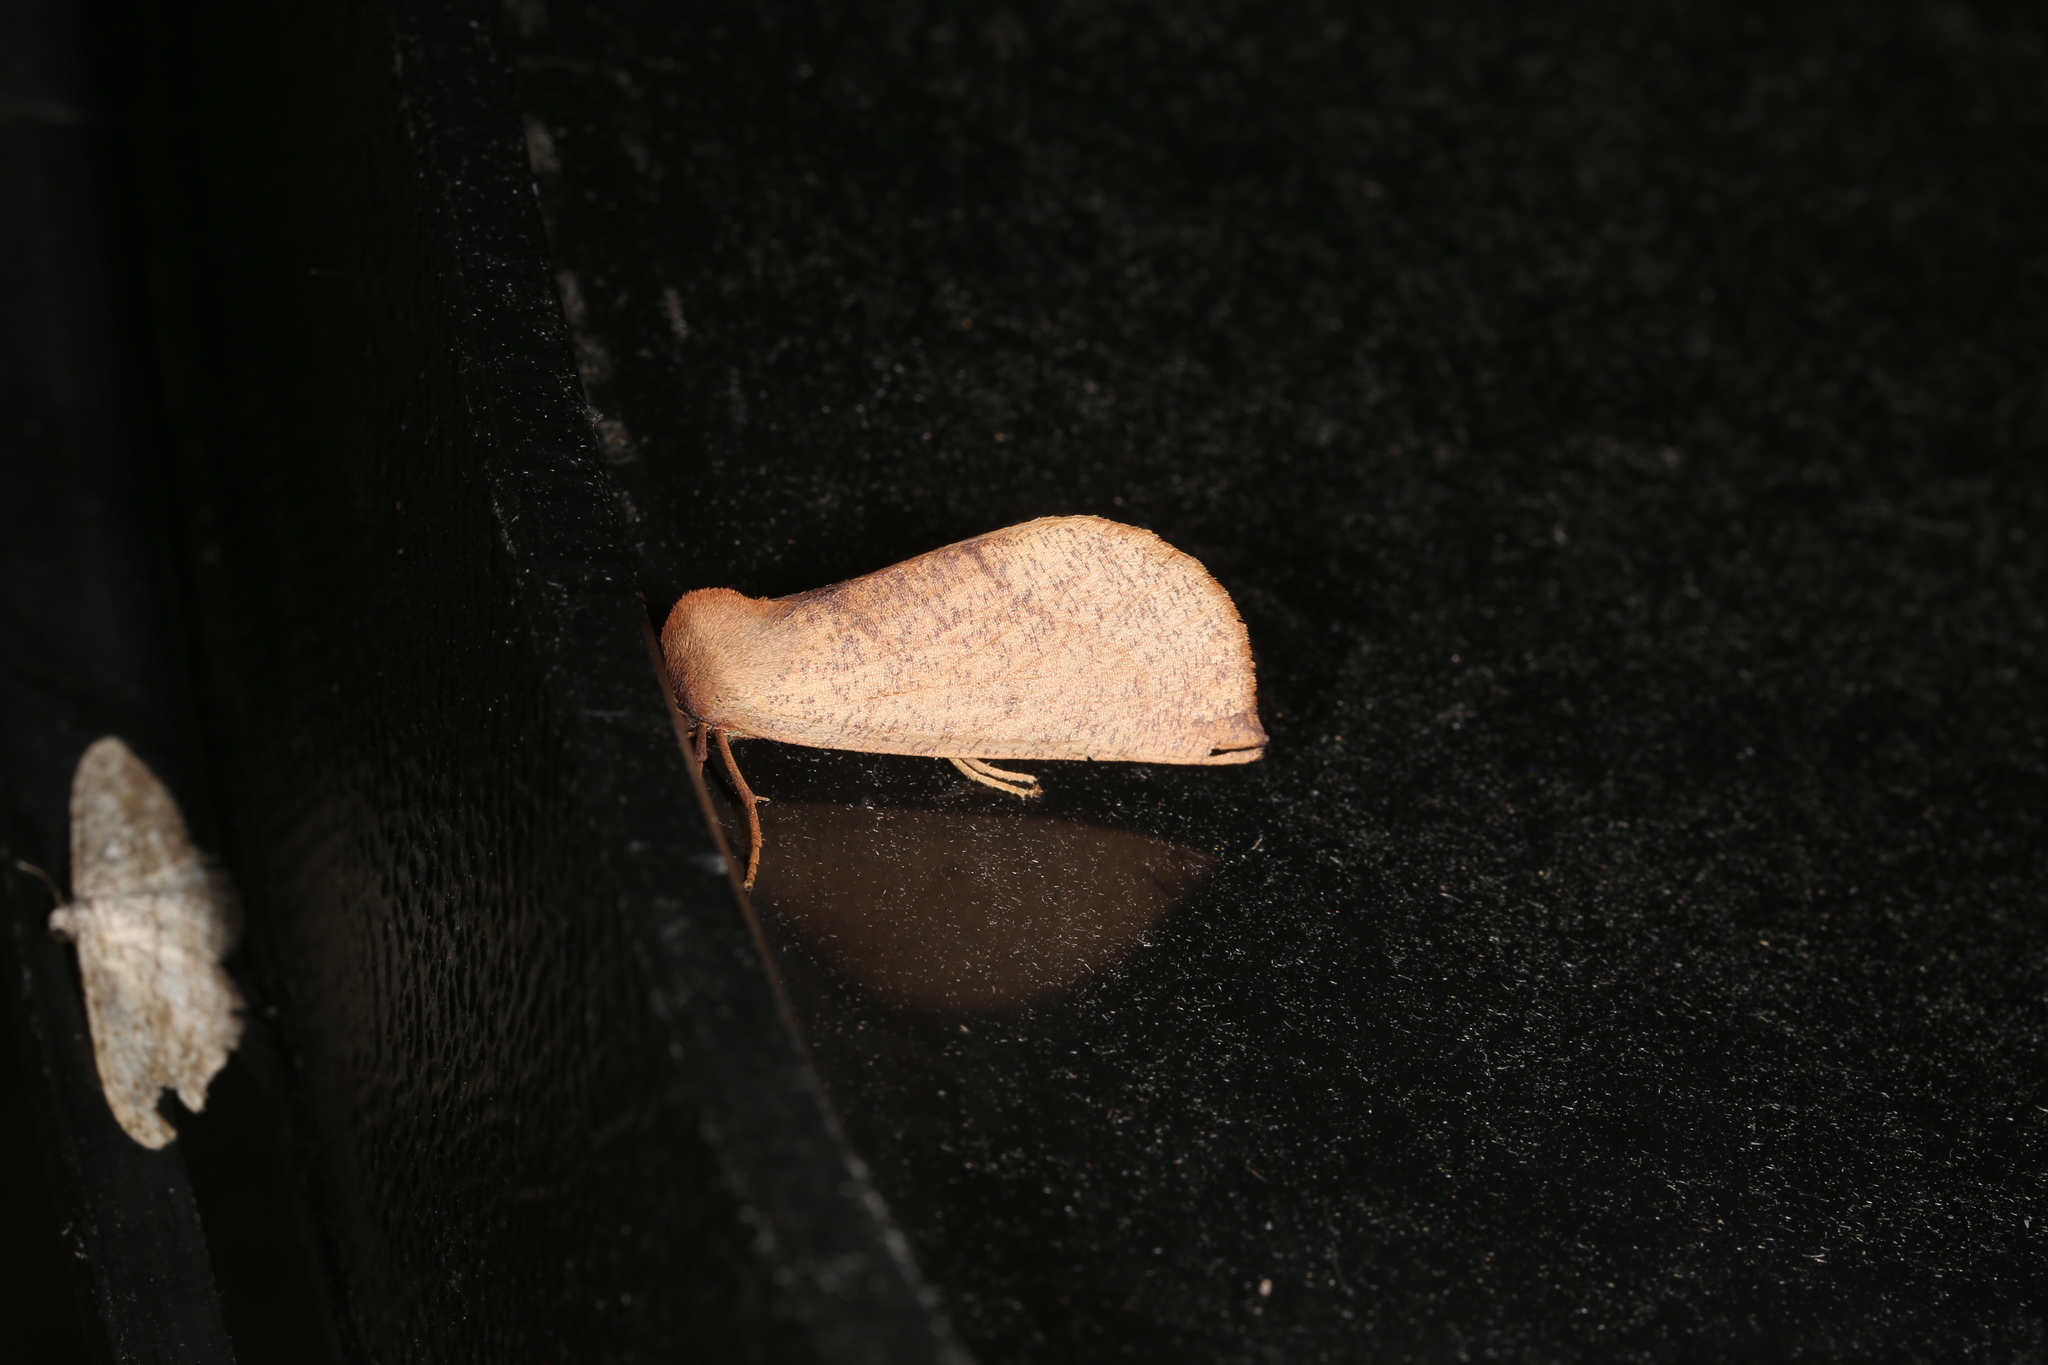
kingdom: Animalia
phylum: Arthropoda
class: Insecta
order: Lepidoptera
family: Geometridae
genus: Fisera
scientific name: Fisera hypoleuca
